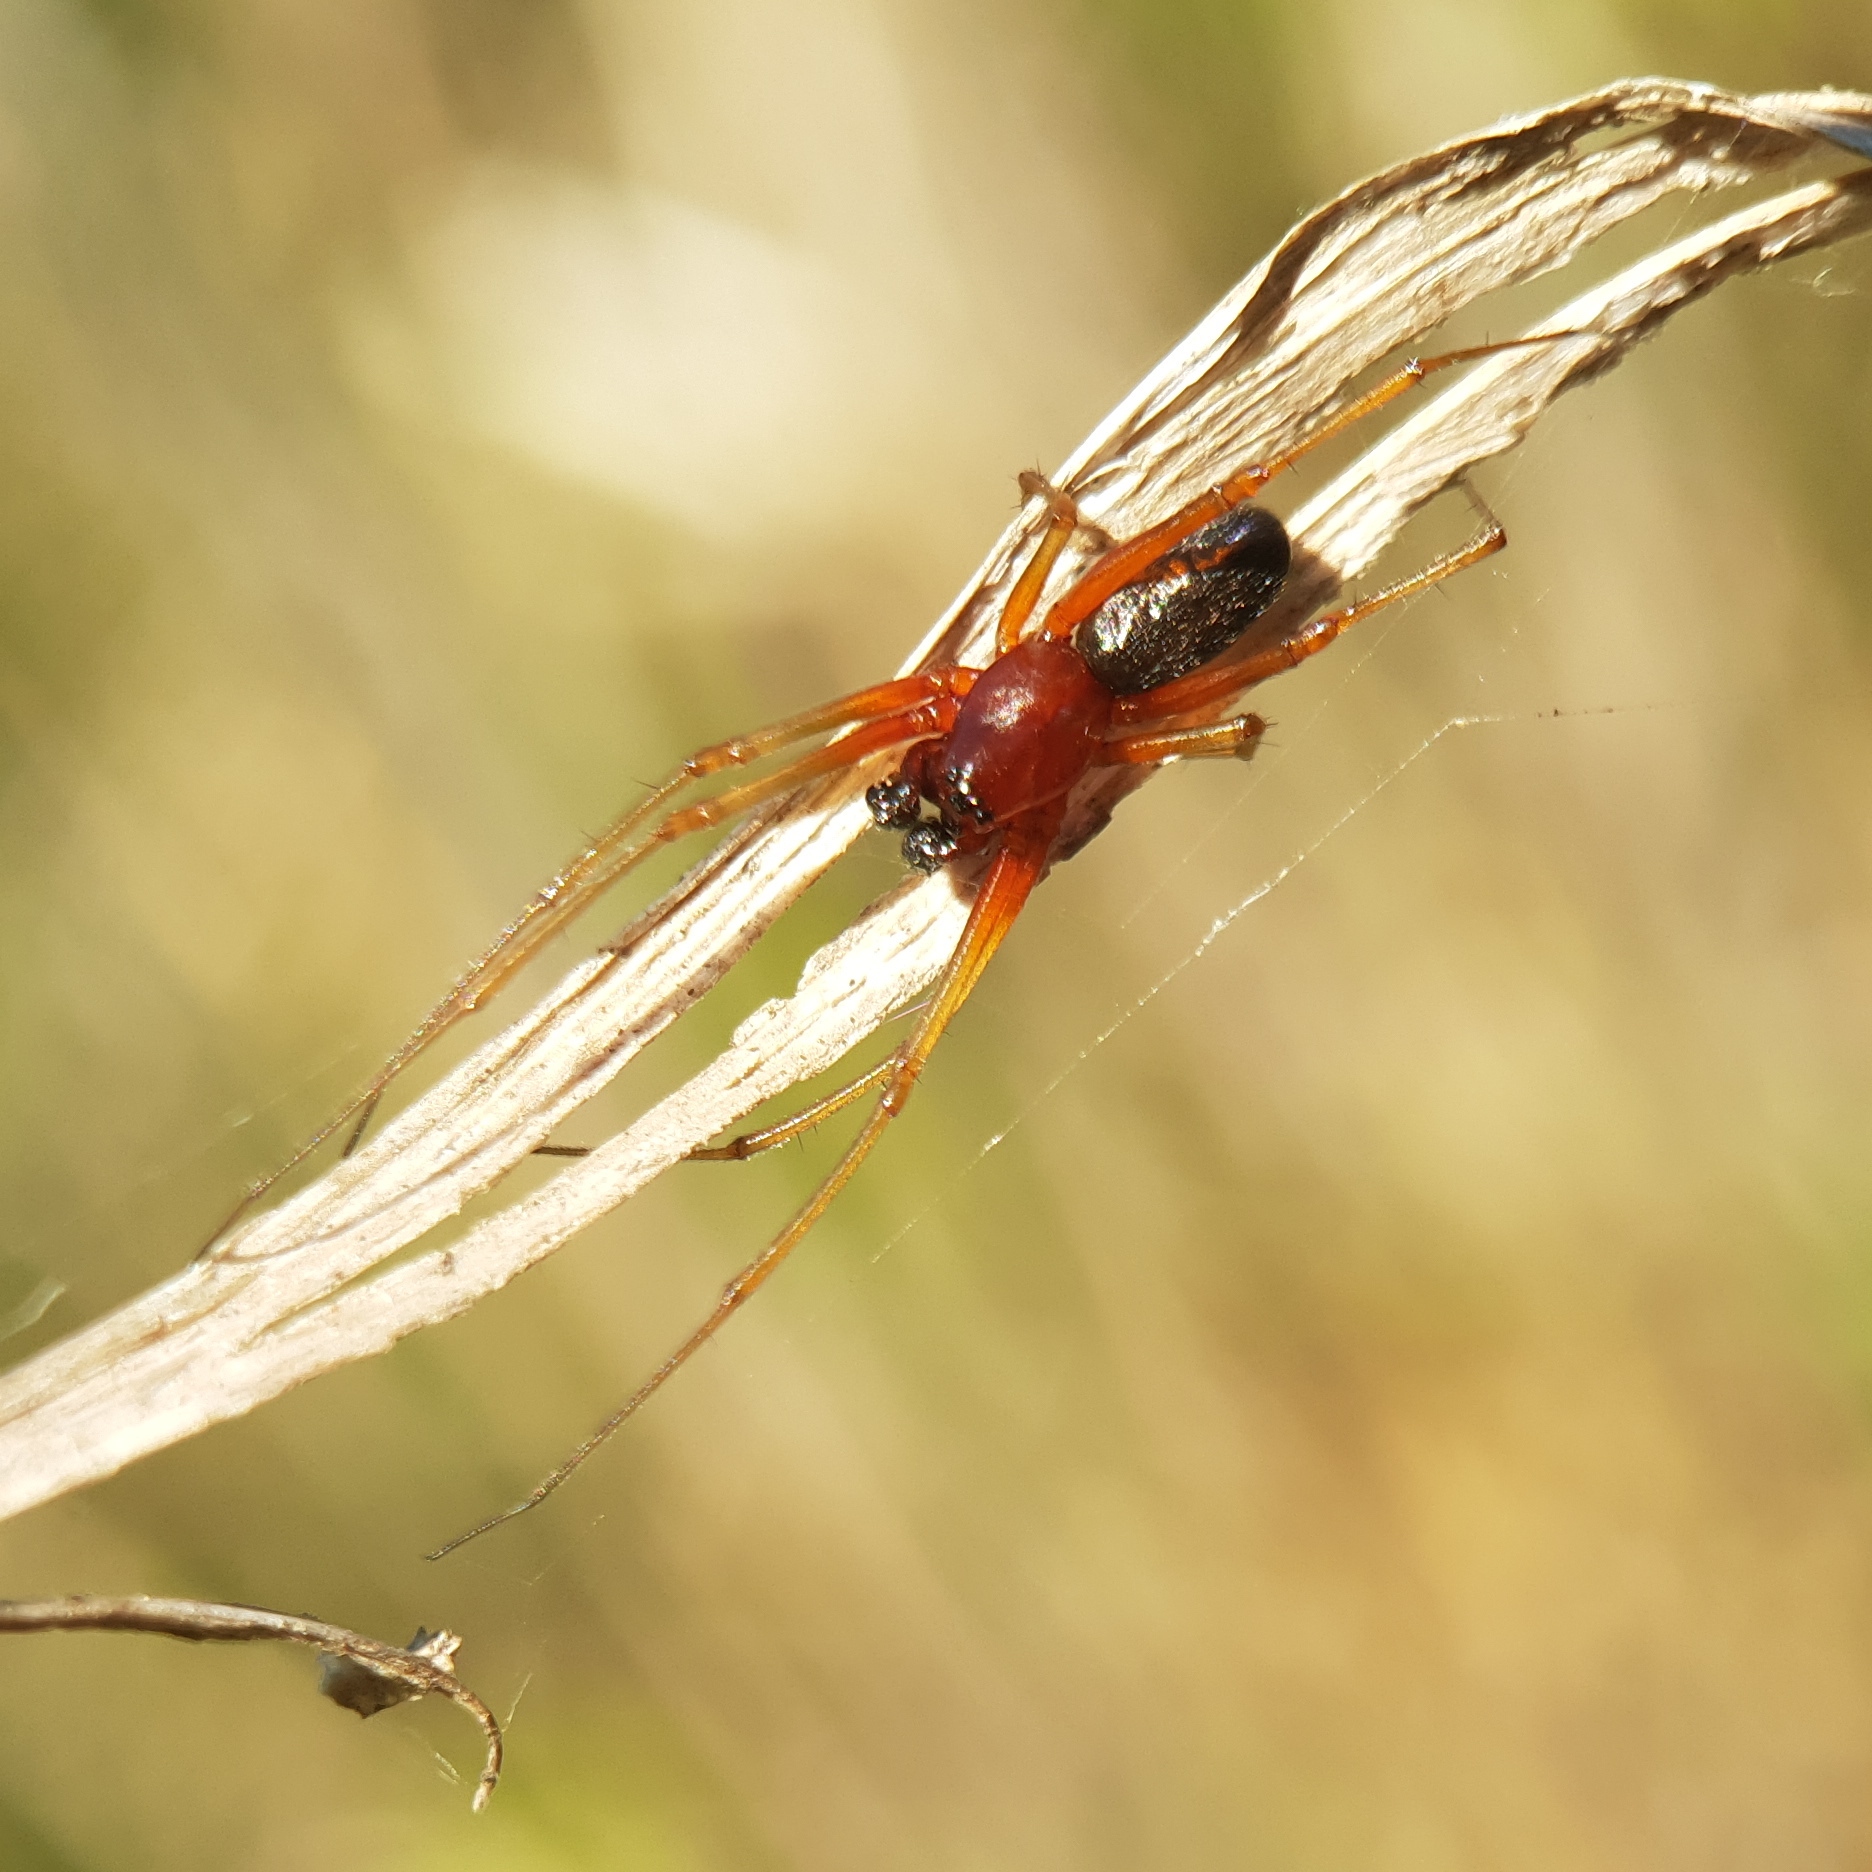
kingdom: Animalia
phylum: Arthropoda
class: Arachnida
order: Araneae
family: Linyphiidae
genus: Frontinellina
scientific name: Frontinellina frutetorum
